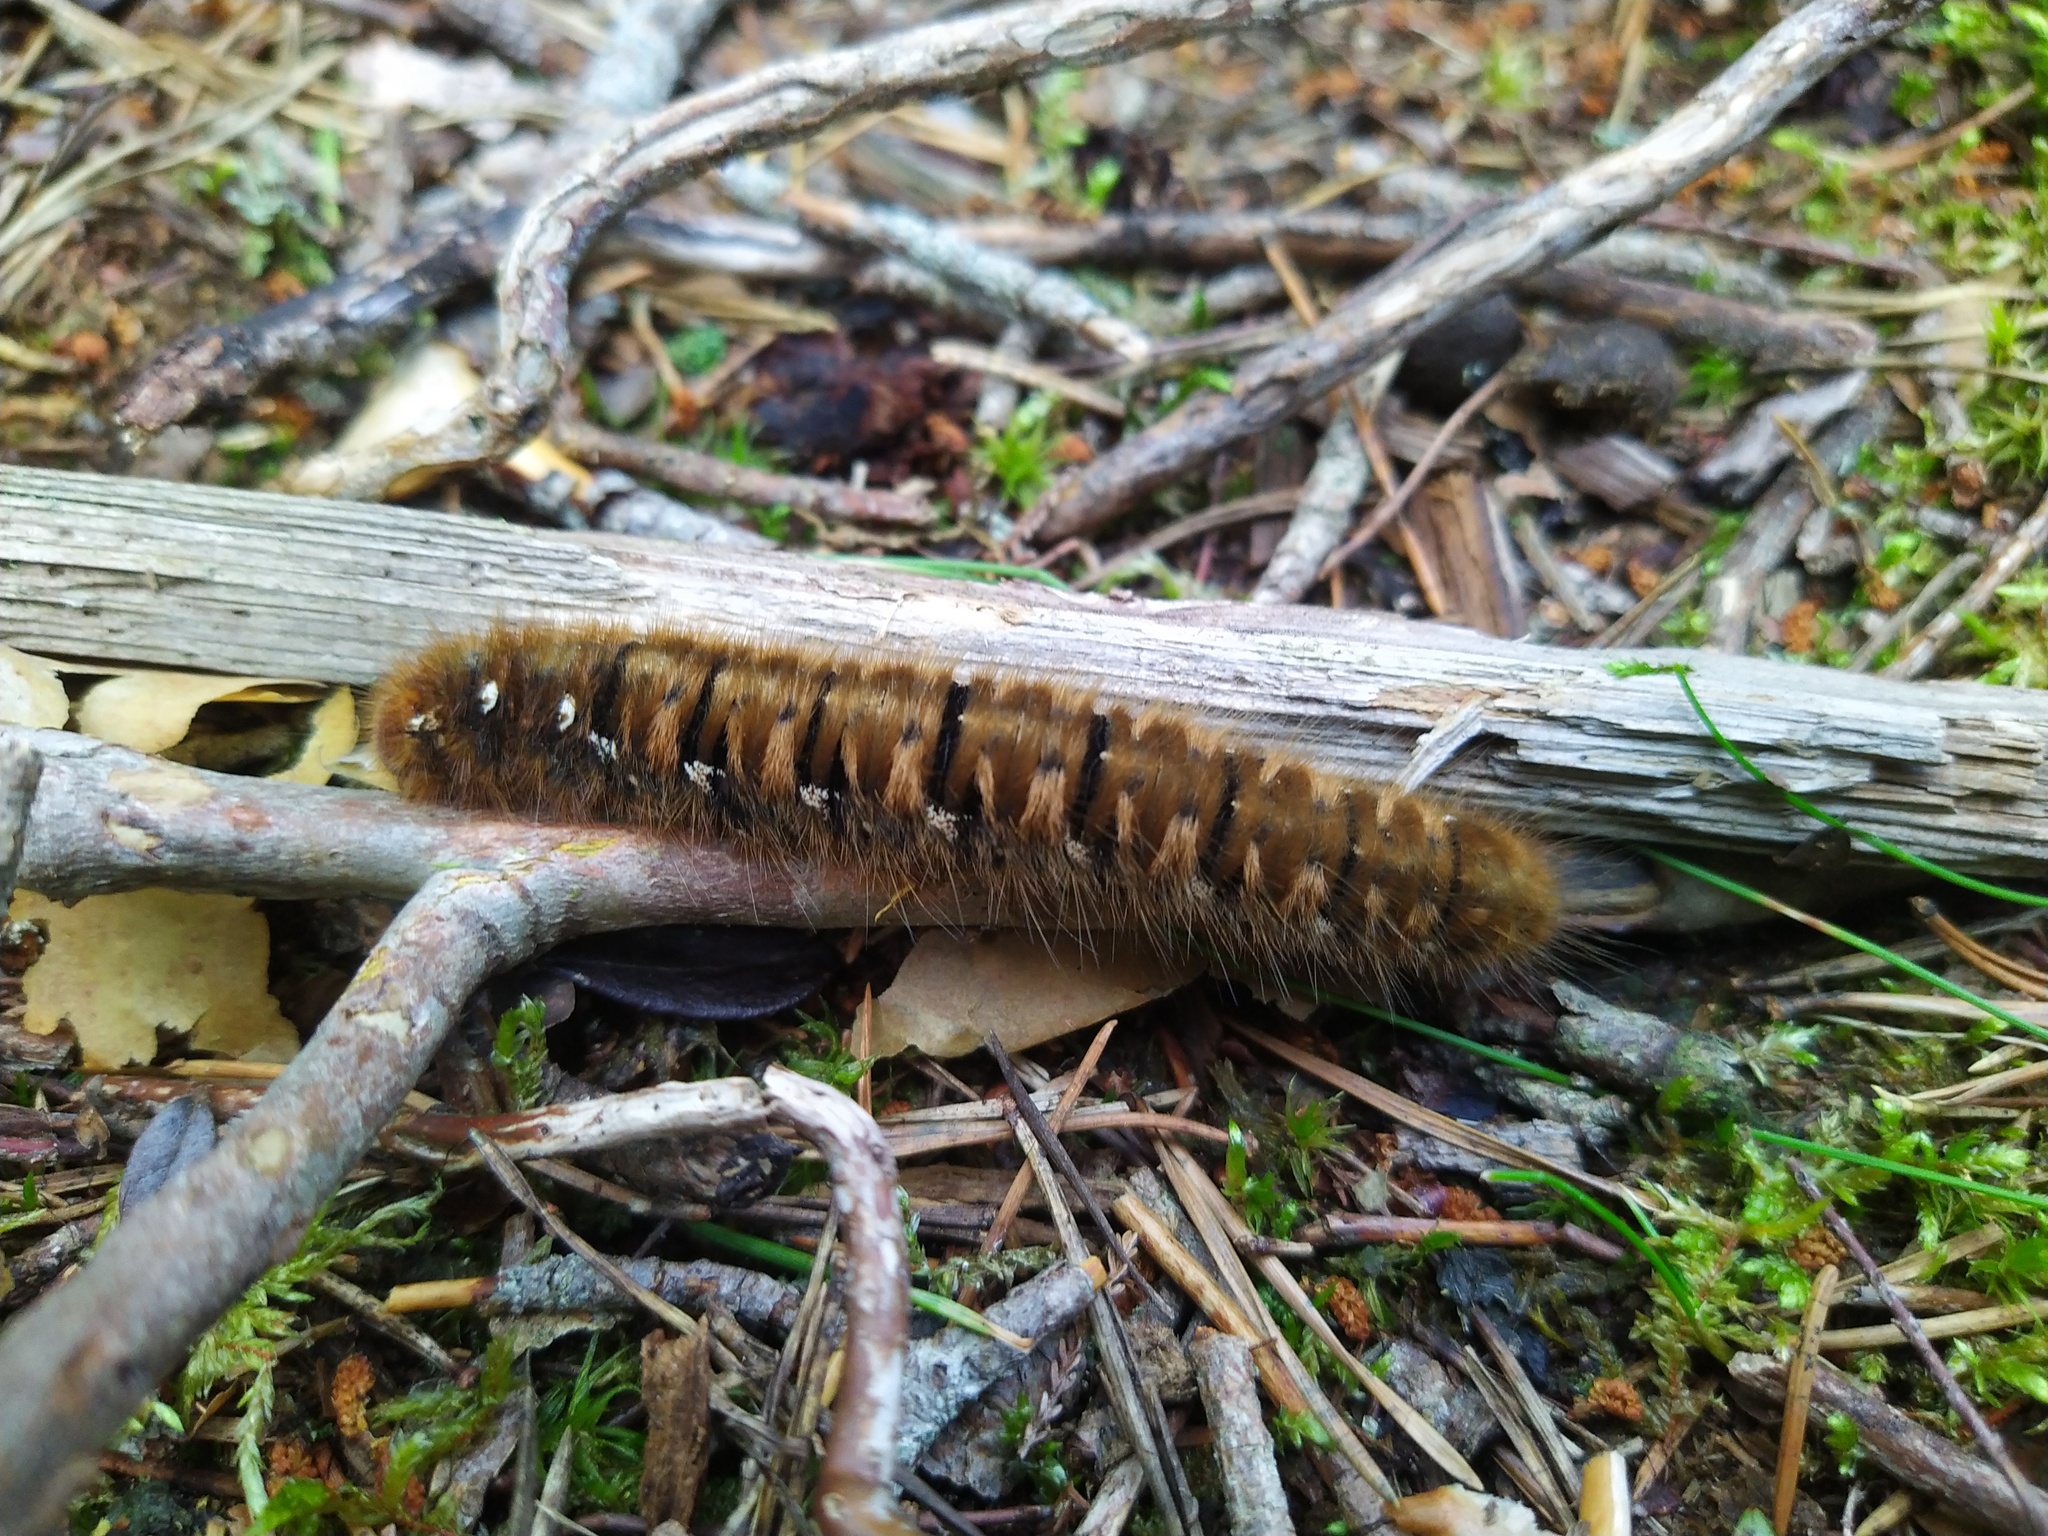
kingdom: Animalia
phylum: Arthropoda
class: Insecta
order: Lepidoptera
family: Lasiocampidae
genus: Lasiocampa
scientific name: Lasiocampa quercus
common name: Oak eggar
